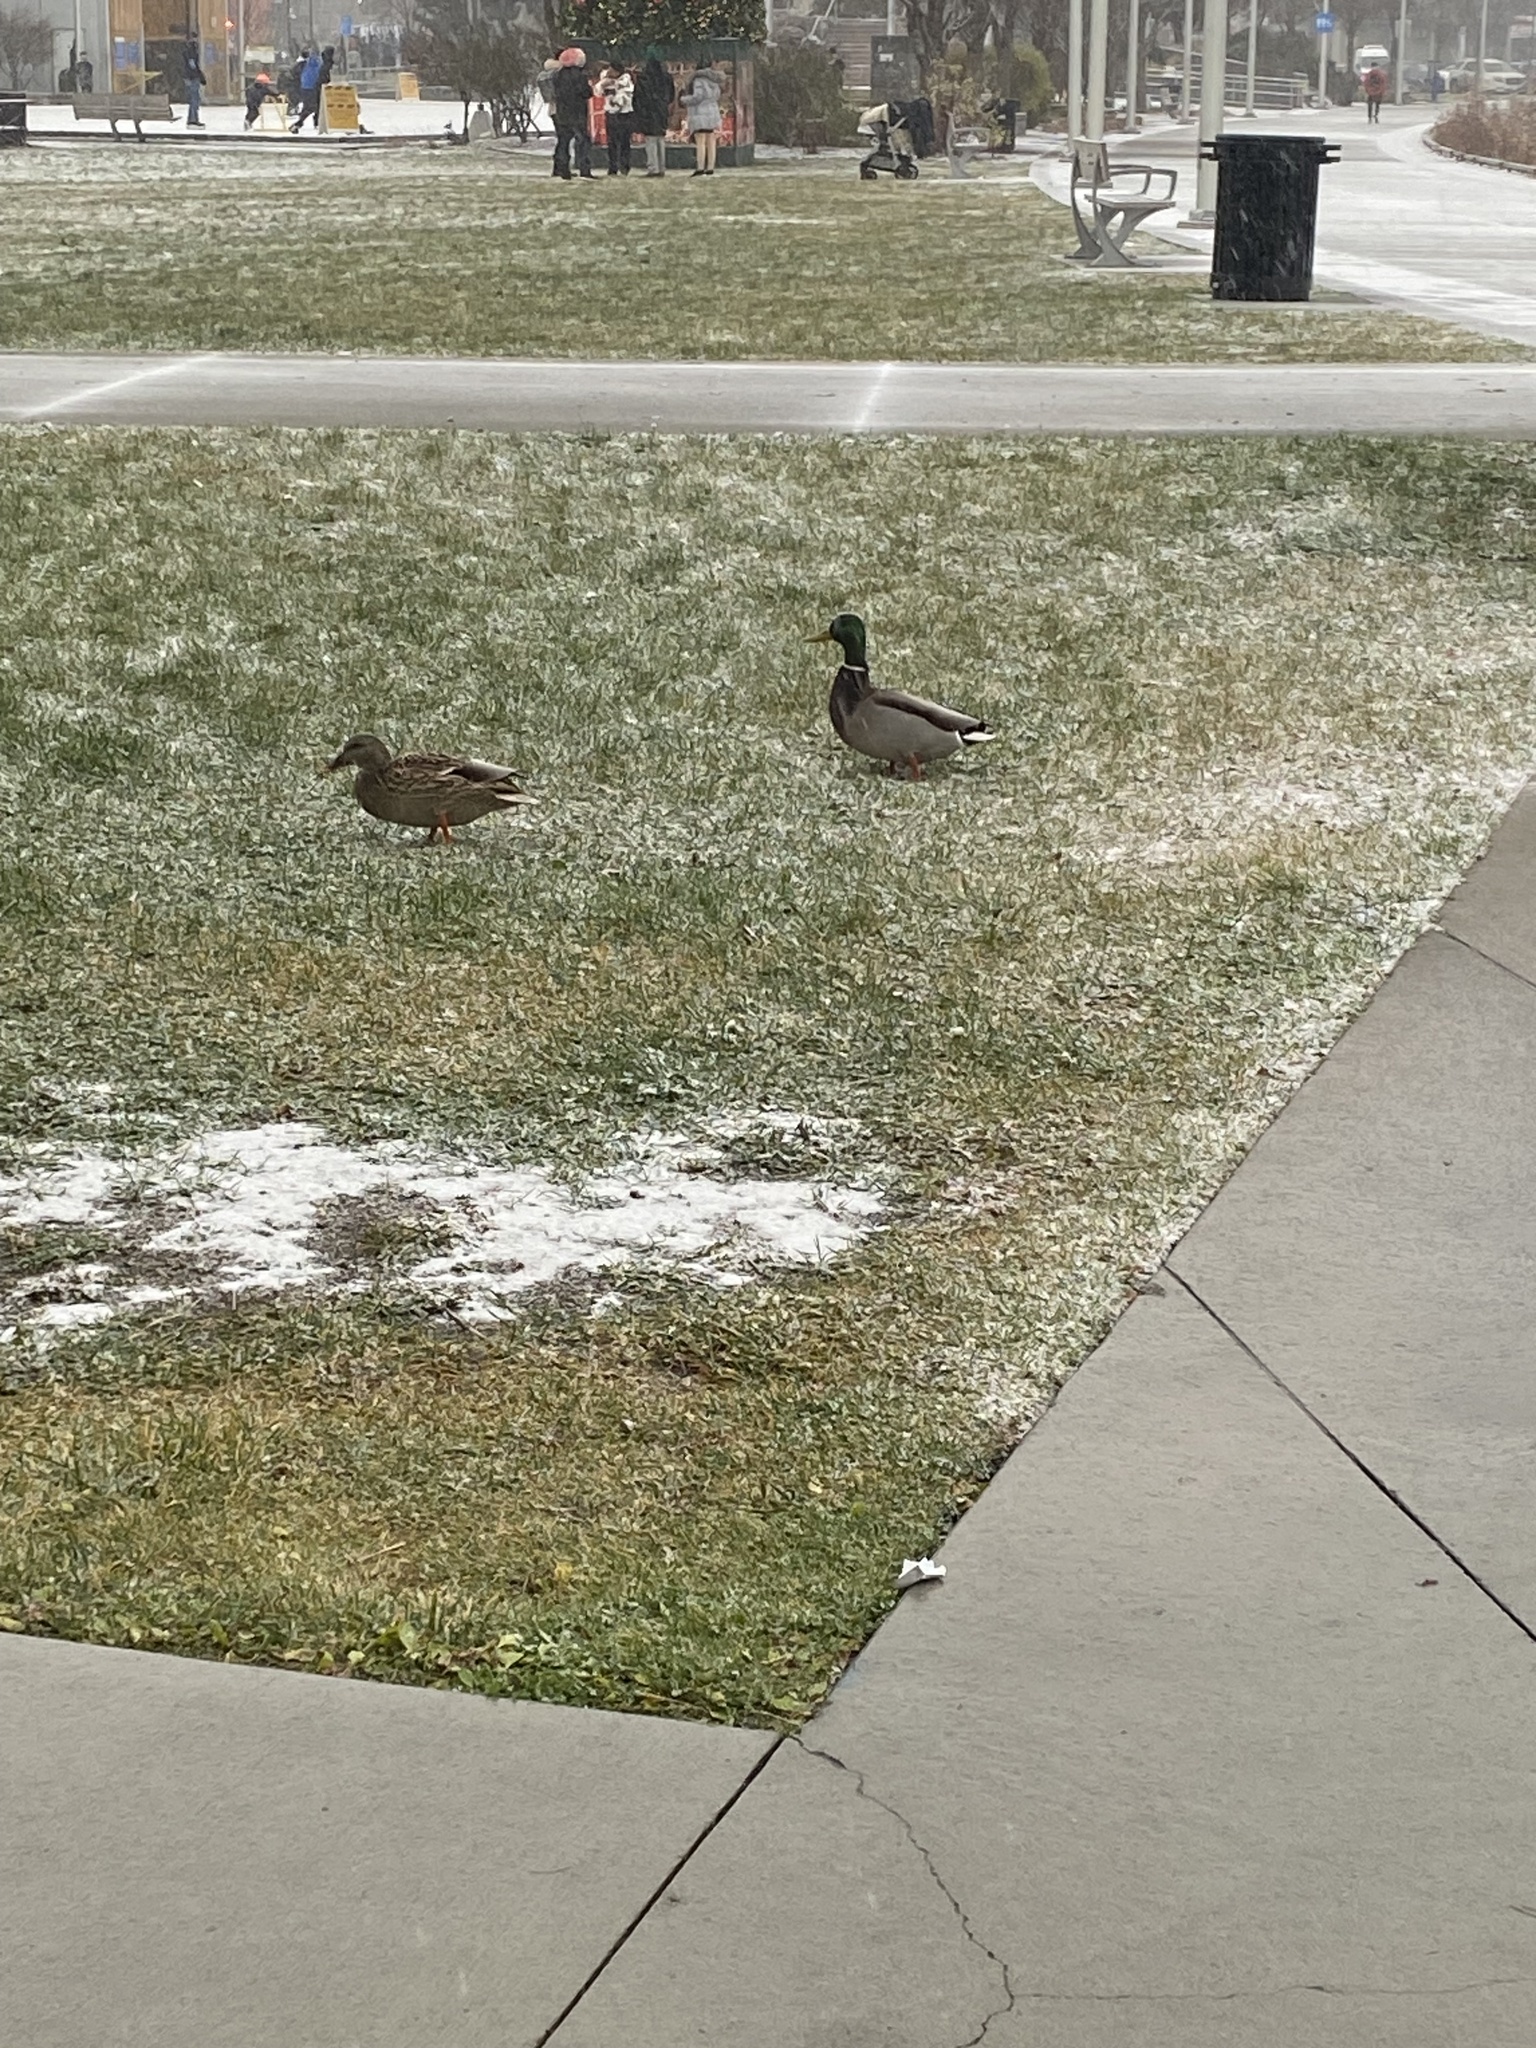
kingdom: Animalia
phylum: Chordata
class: Aves
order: Anseriformes
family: Anatidae
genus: Anas
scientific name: Anas platyrhynchos
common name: Mallard
